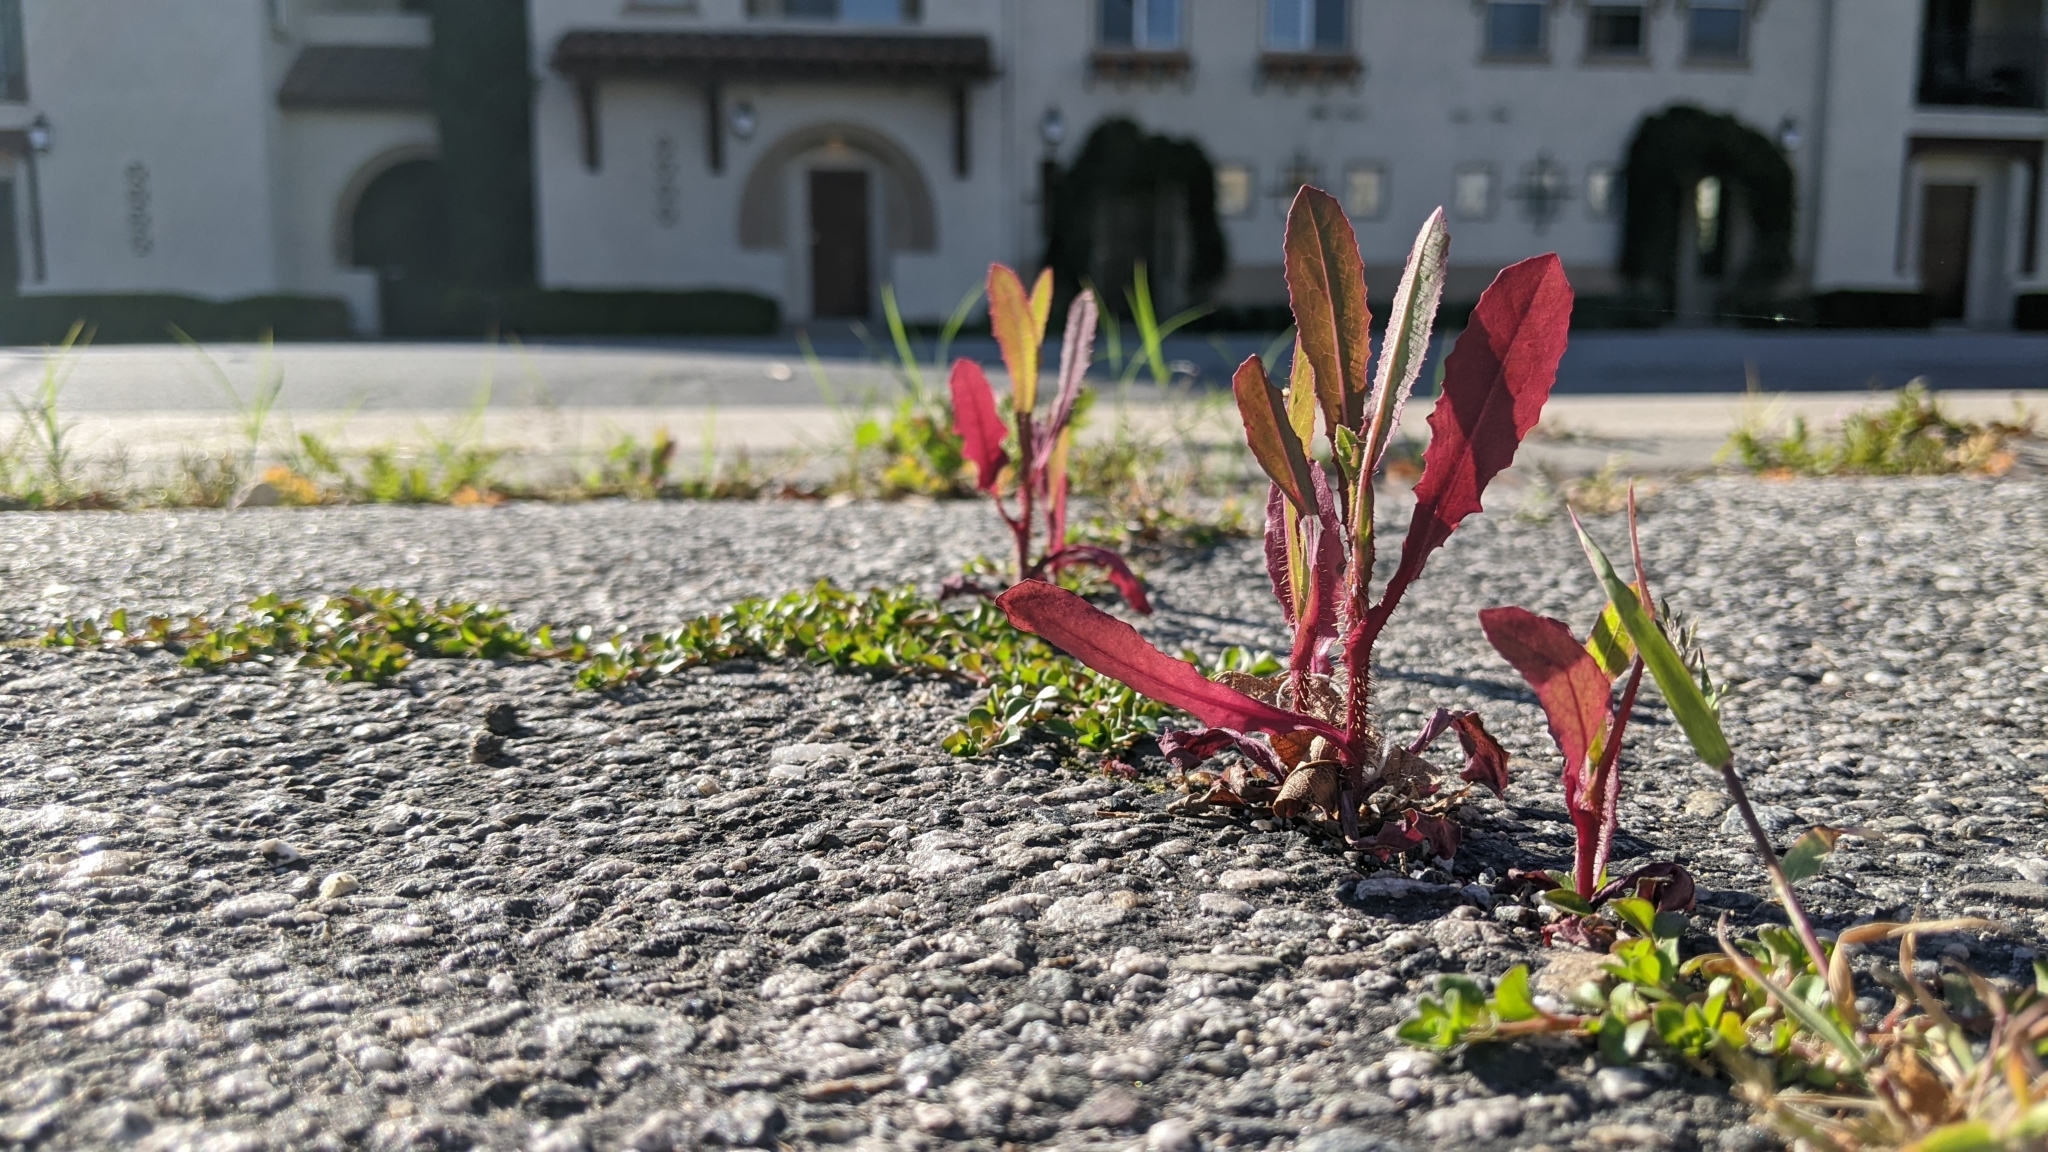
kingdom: Plantae
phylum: Tracheophyta
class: Magnoliopsida
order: Asterales
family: Asteraceae
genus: Lactuca
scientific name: Lactuca serriola
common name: Prickly lettuce
